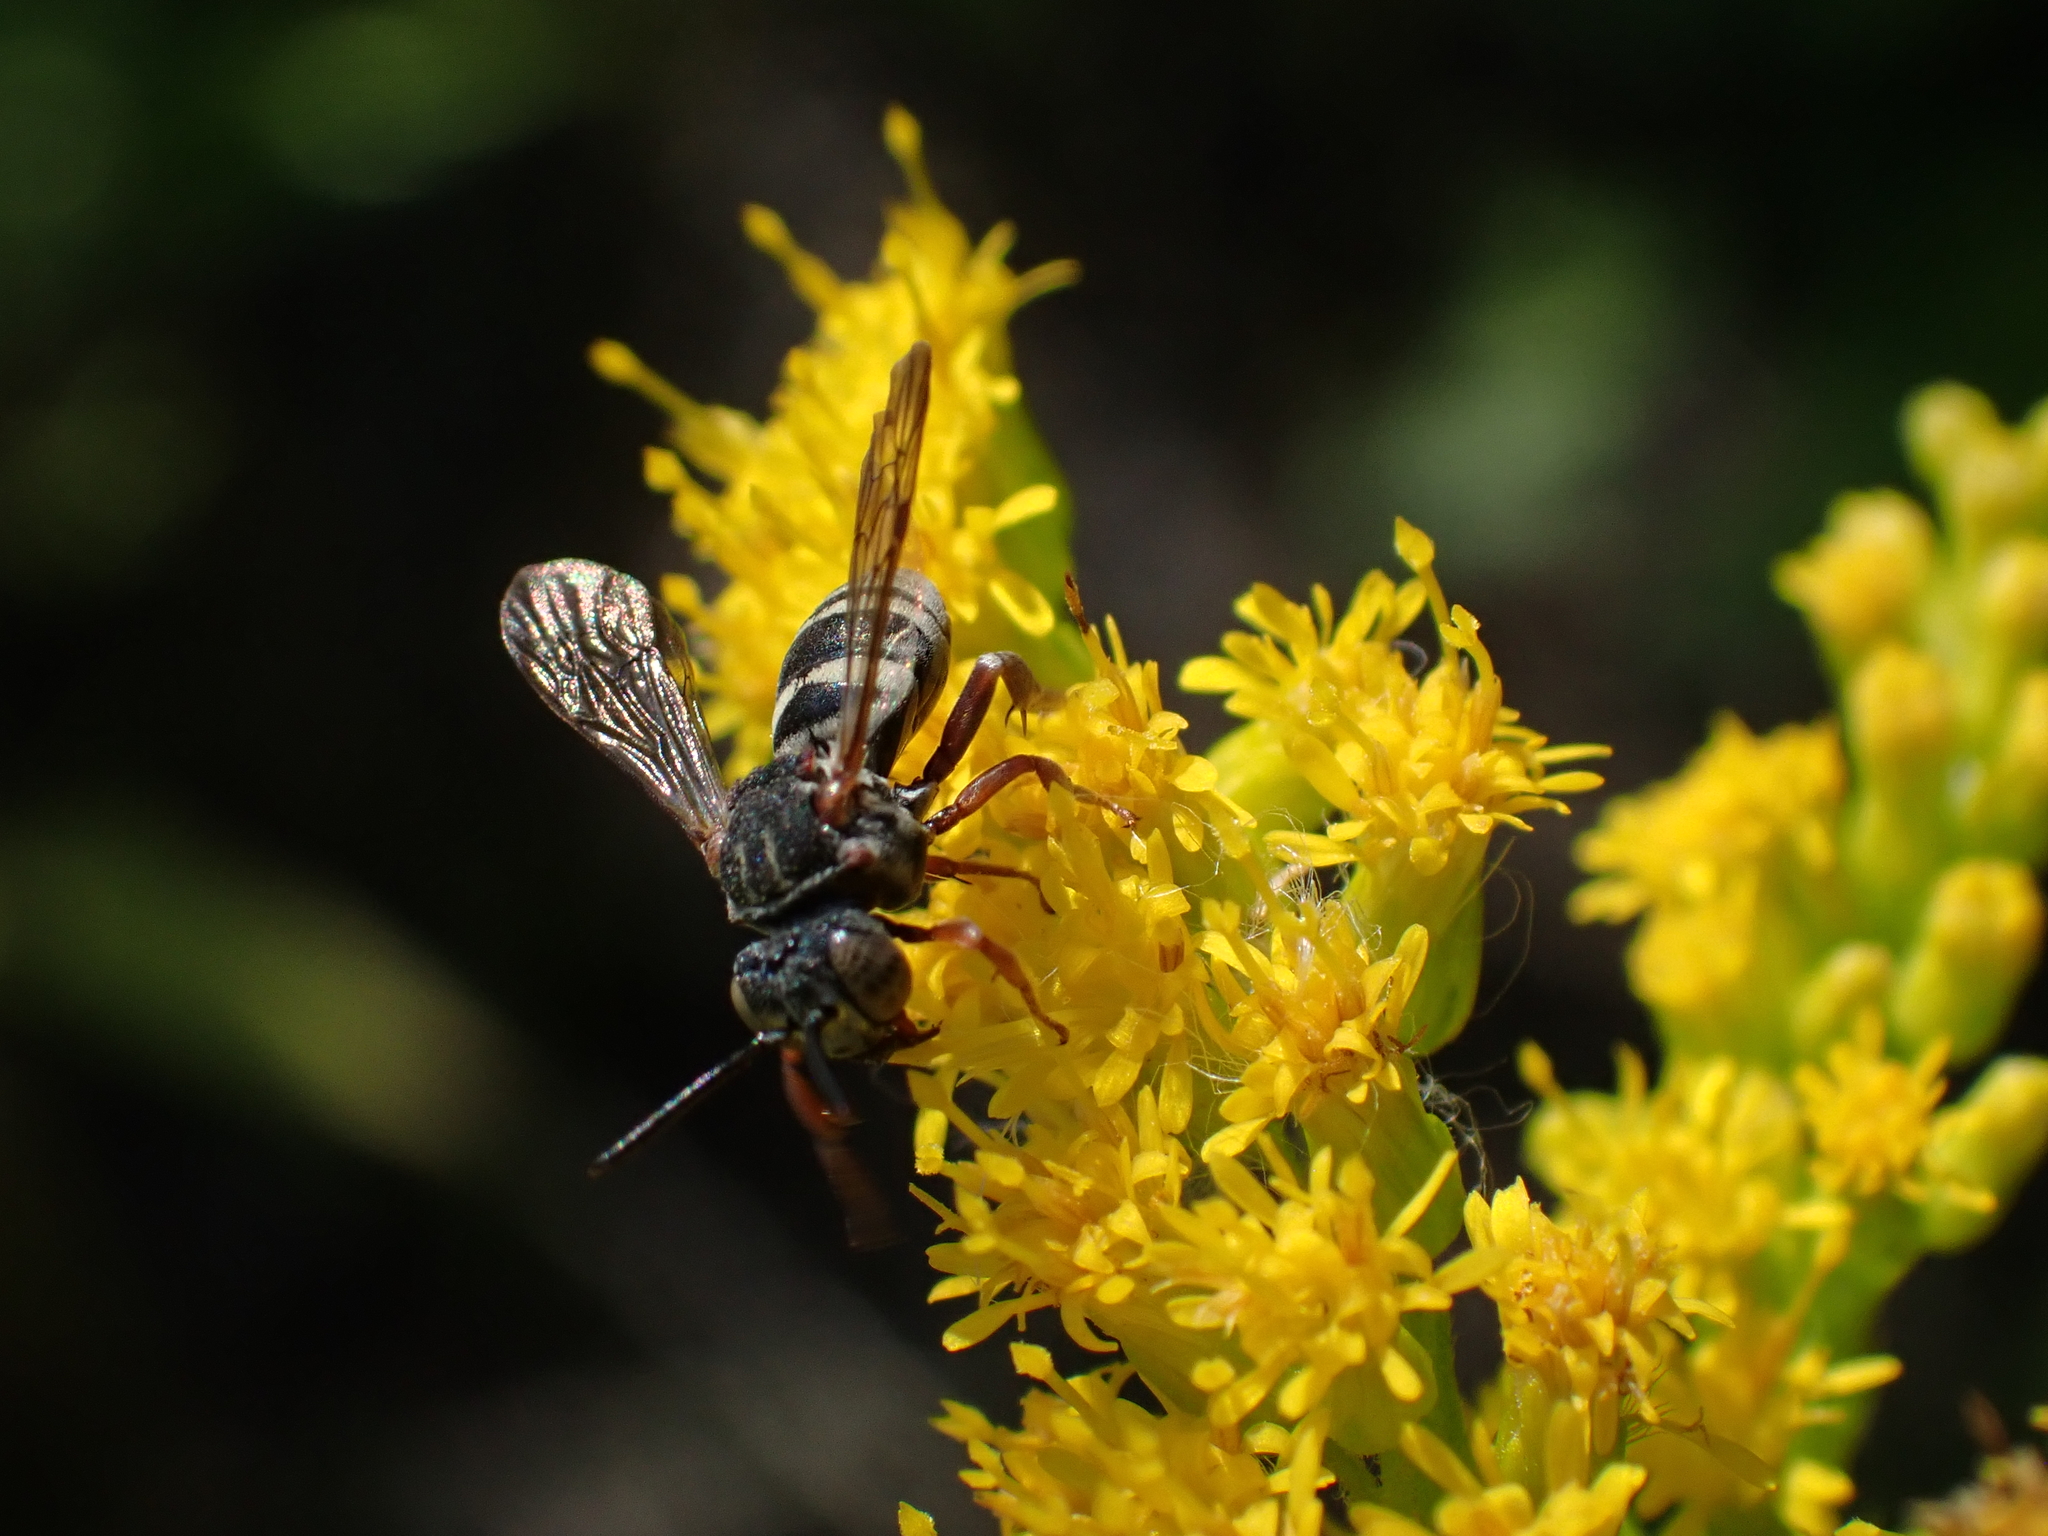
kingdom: Animalia
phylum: Arthropoda
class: Insecta
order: Hymenoptera
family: Apidae
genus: Epeolus
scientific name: Epeolus scutellaris
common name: Notch-backed cellophane-cuckoo bee
